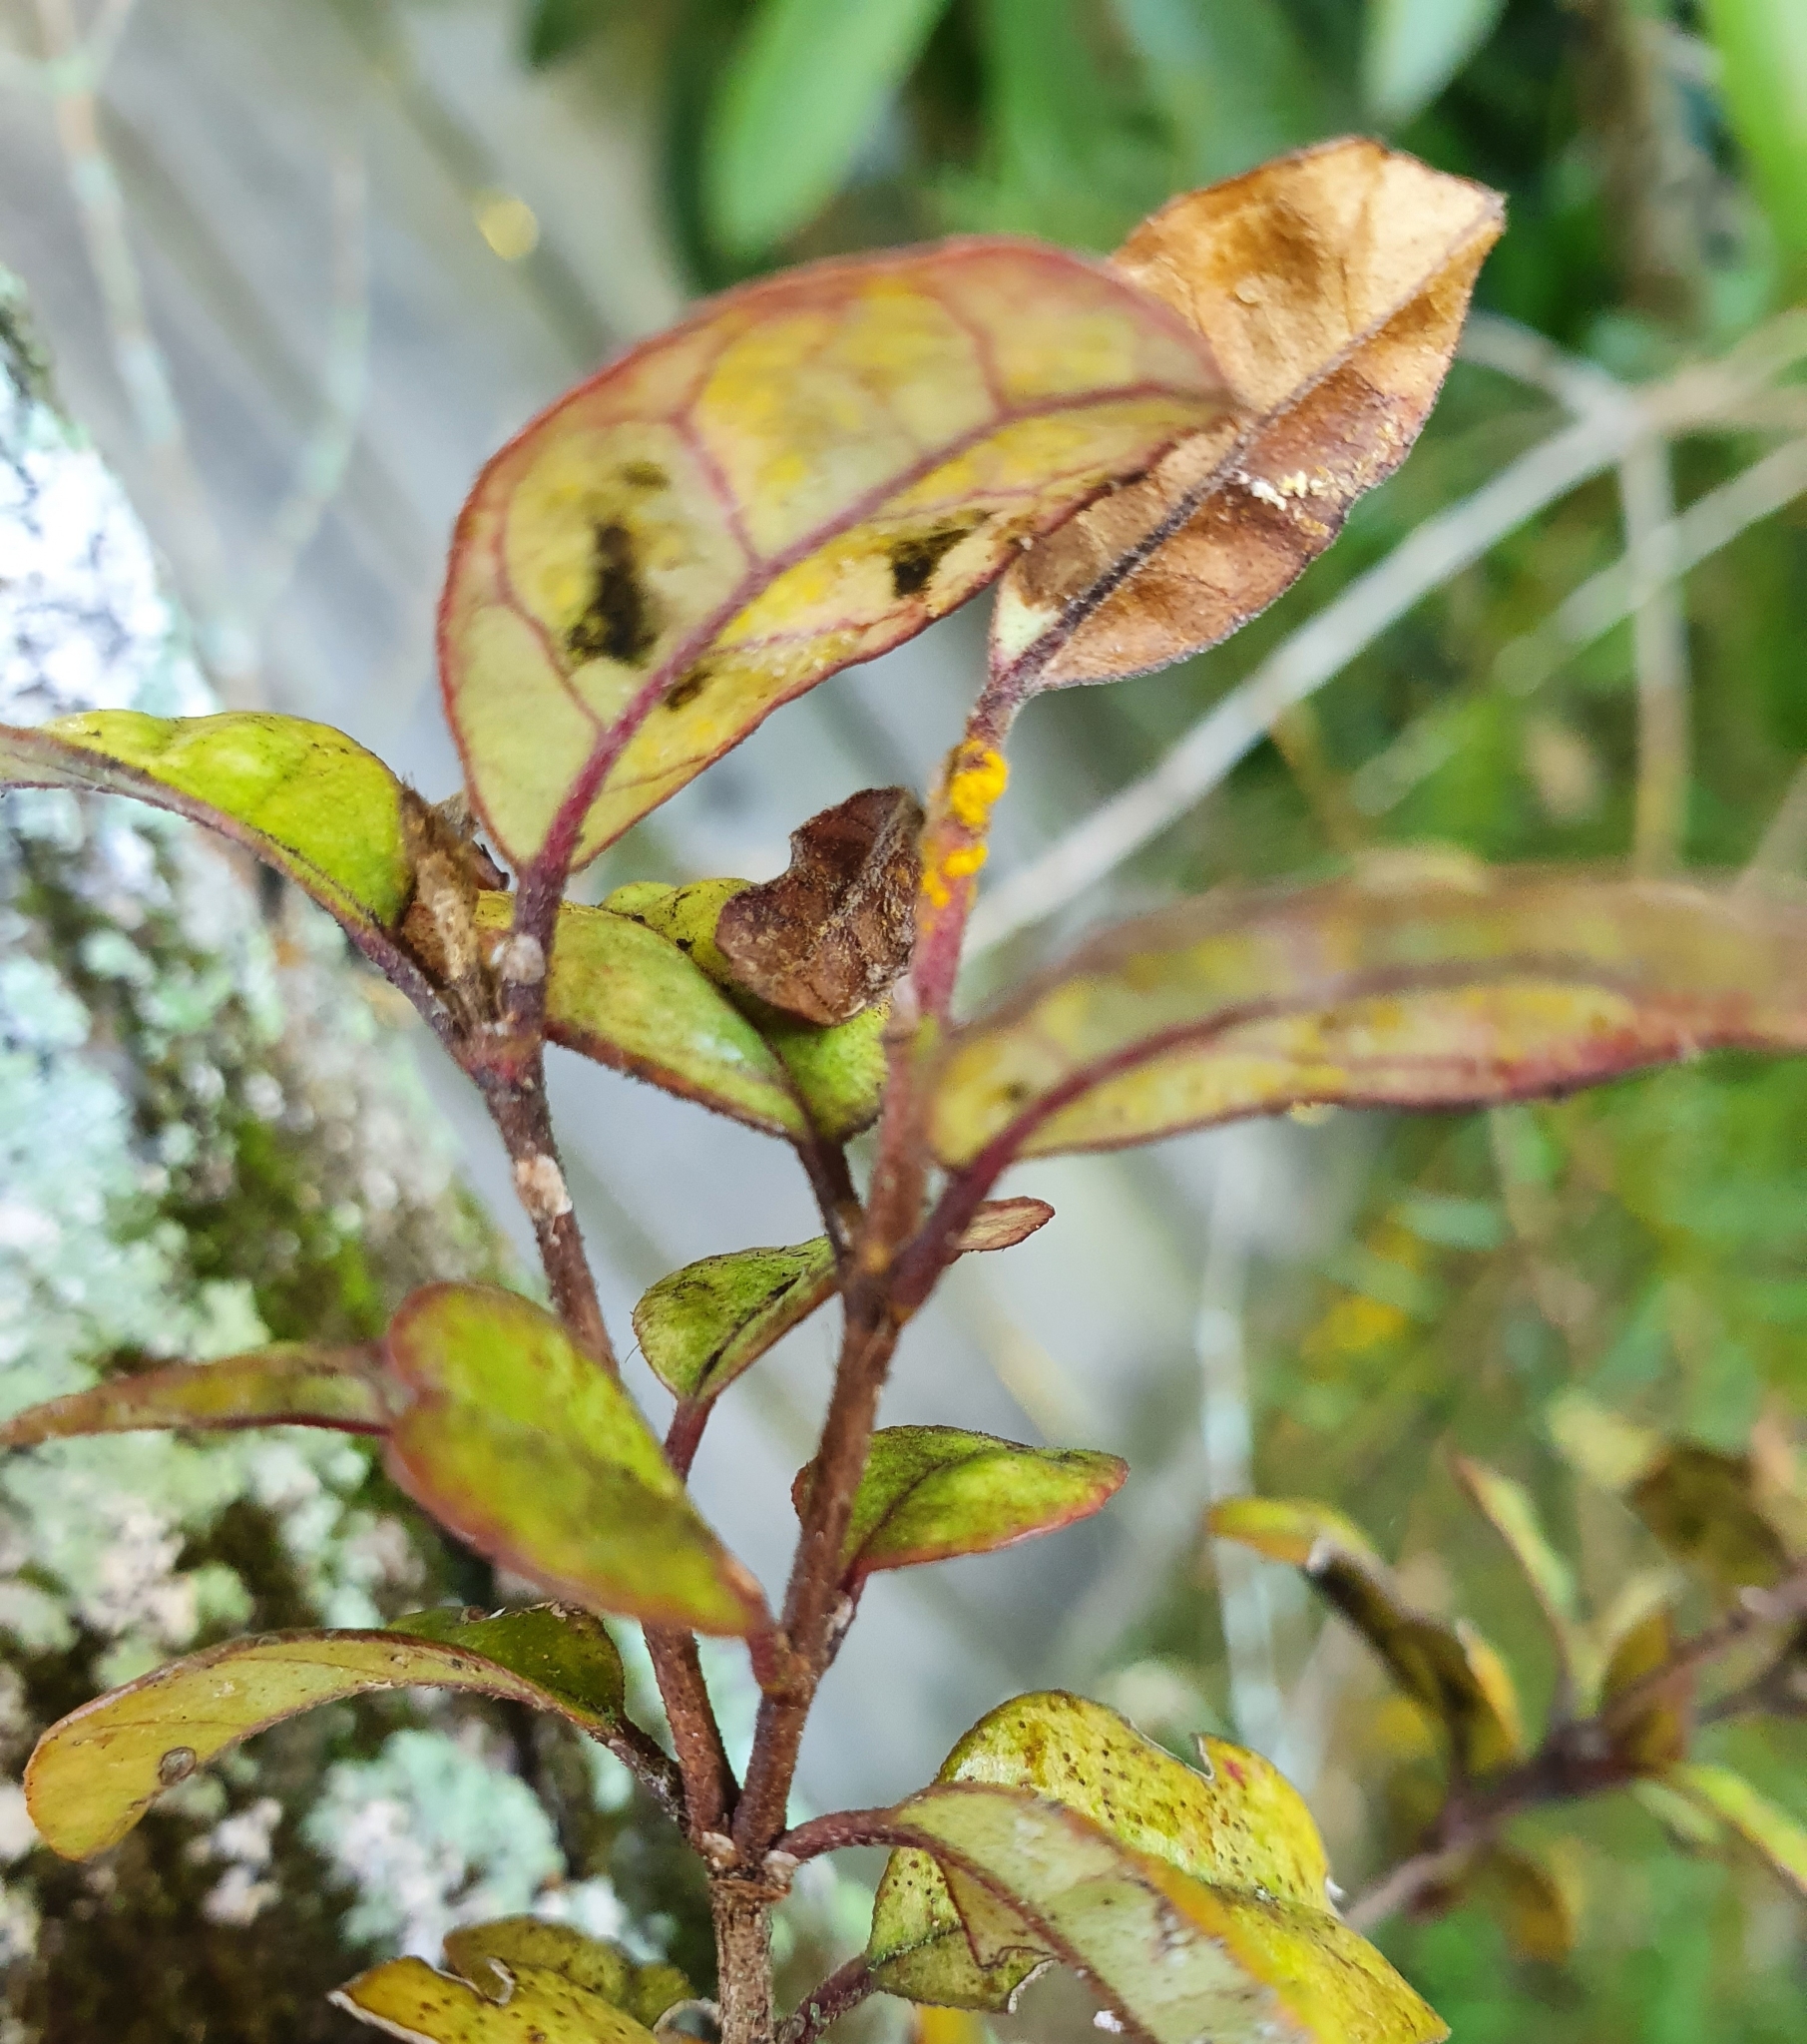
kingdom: Fungi
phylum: Basidiomycota
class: Pucciniomycetes
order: Pucciniales
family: Sphaerophragmiaceae
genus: Austropuccinia
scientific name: Austropuccinia psidii
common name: Myrtle rust
